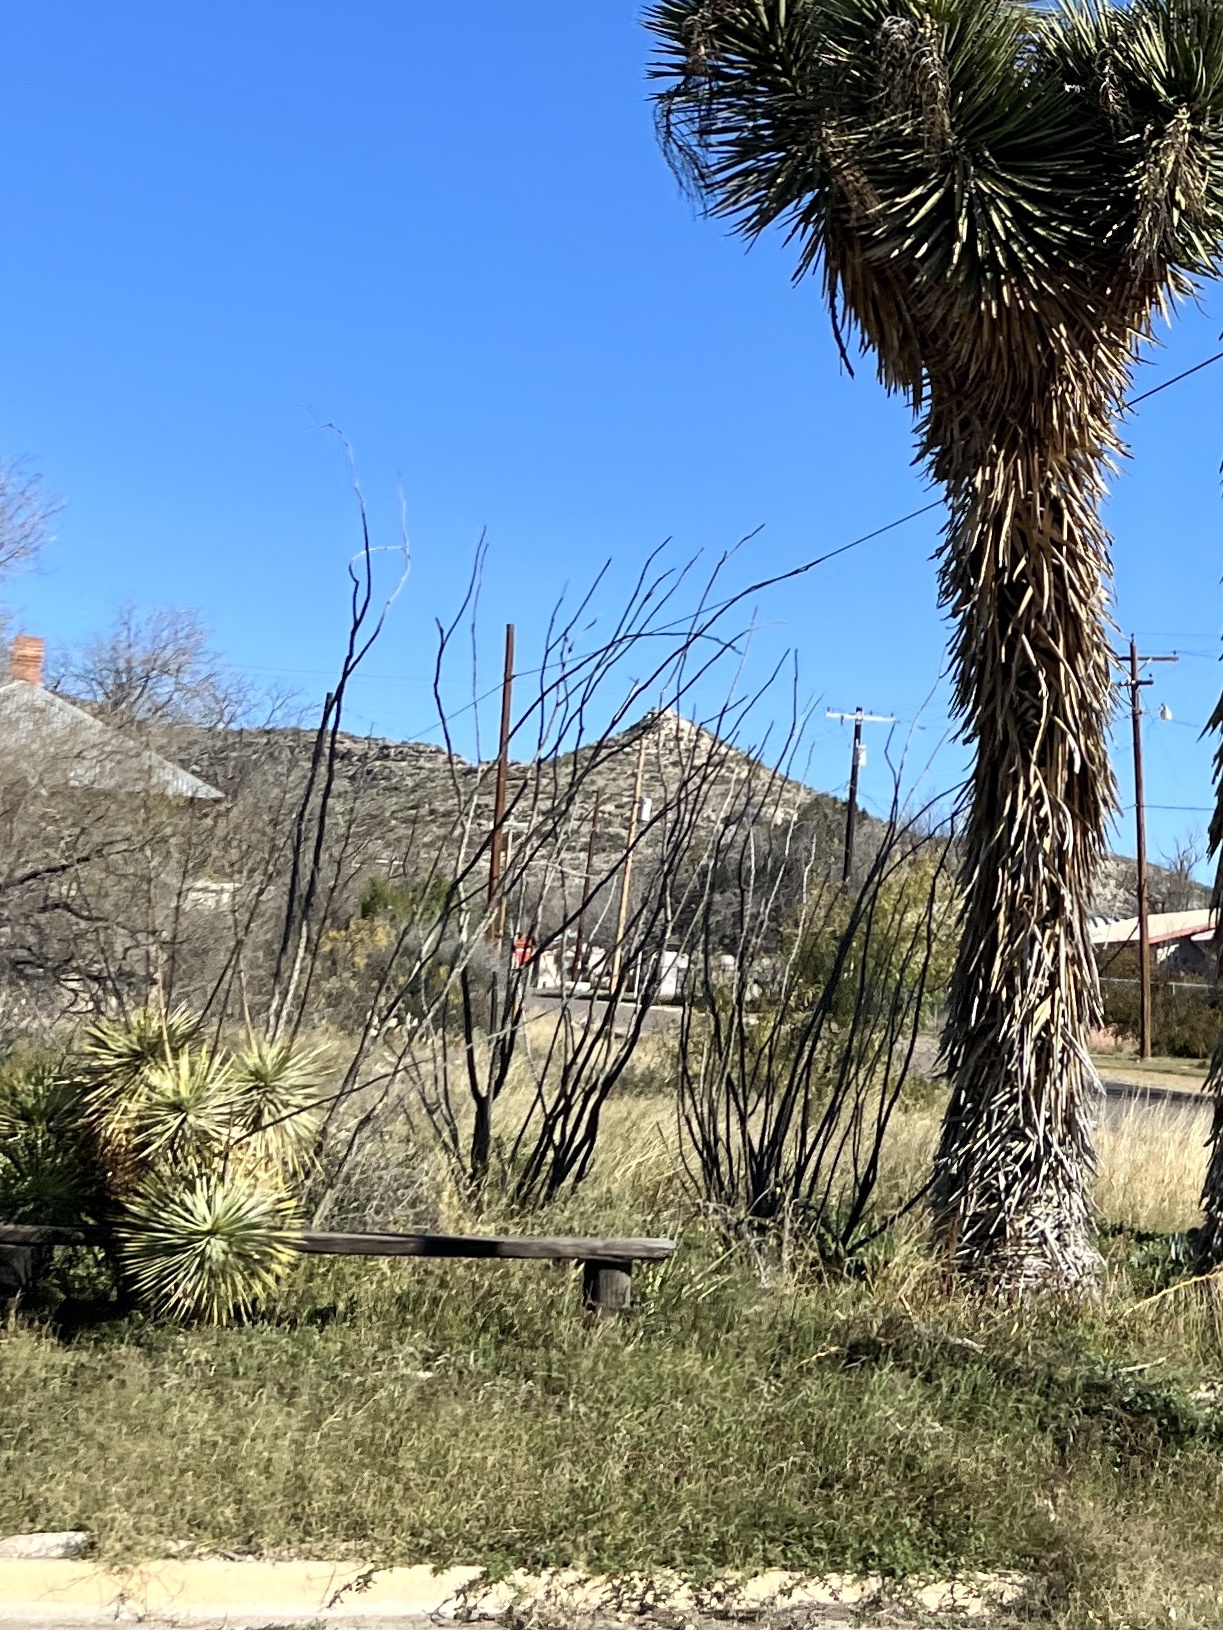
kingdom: Plantae
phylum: Tracheophyta
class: Magnoliopsida
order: Ericales
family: Fouquieriaceae
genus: Fouquieria
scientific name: Fouquieria splendens
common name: Vine-cactus
